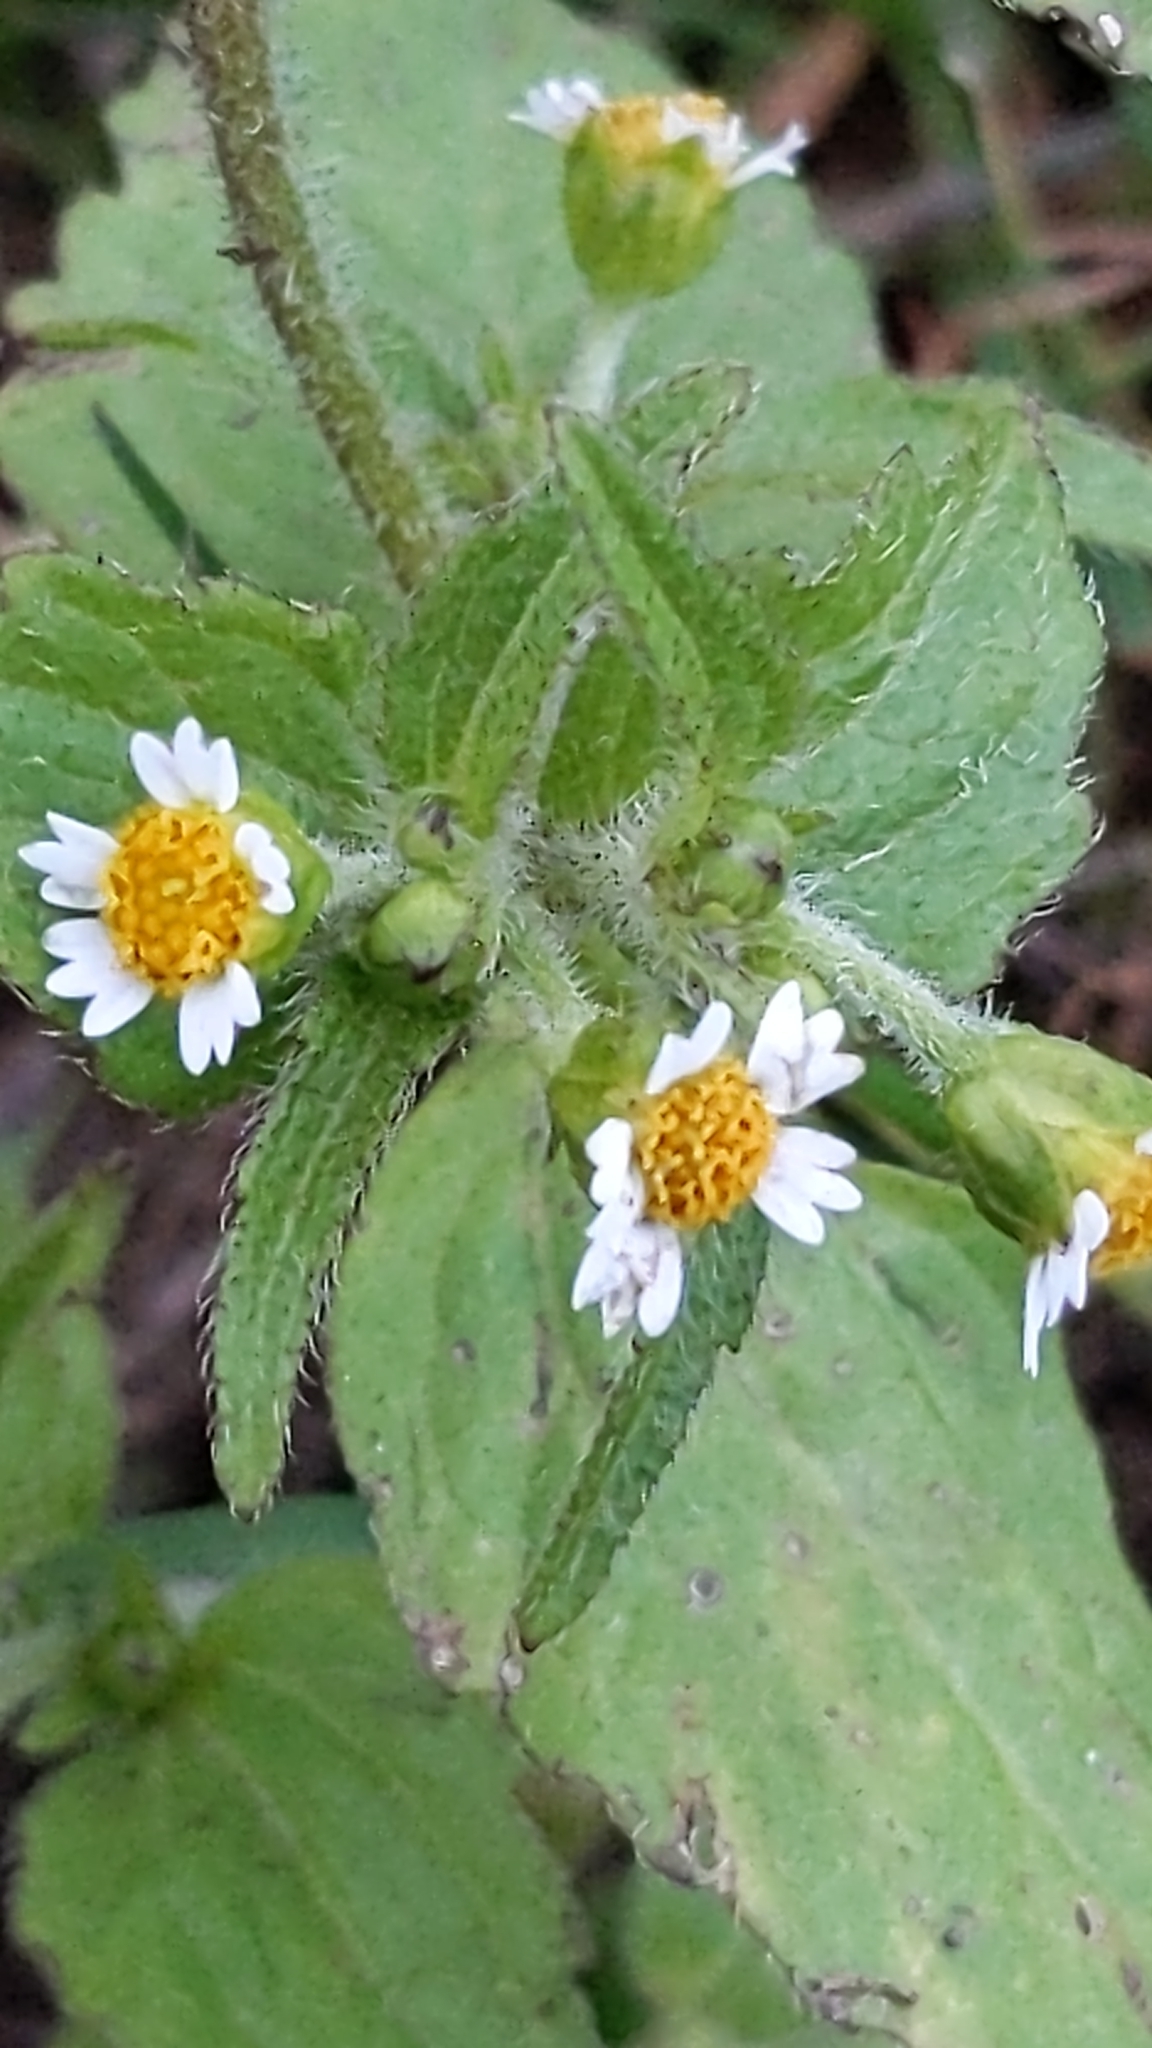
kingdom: Plantae
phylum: Tracheophyta
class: Magnoliopsida
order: Asterales
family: Asteraceae
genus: Galinsoga
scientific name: Galinsoga quadriradiata
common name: Shaggy soldier
